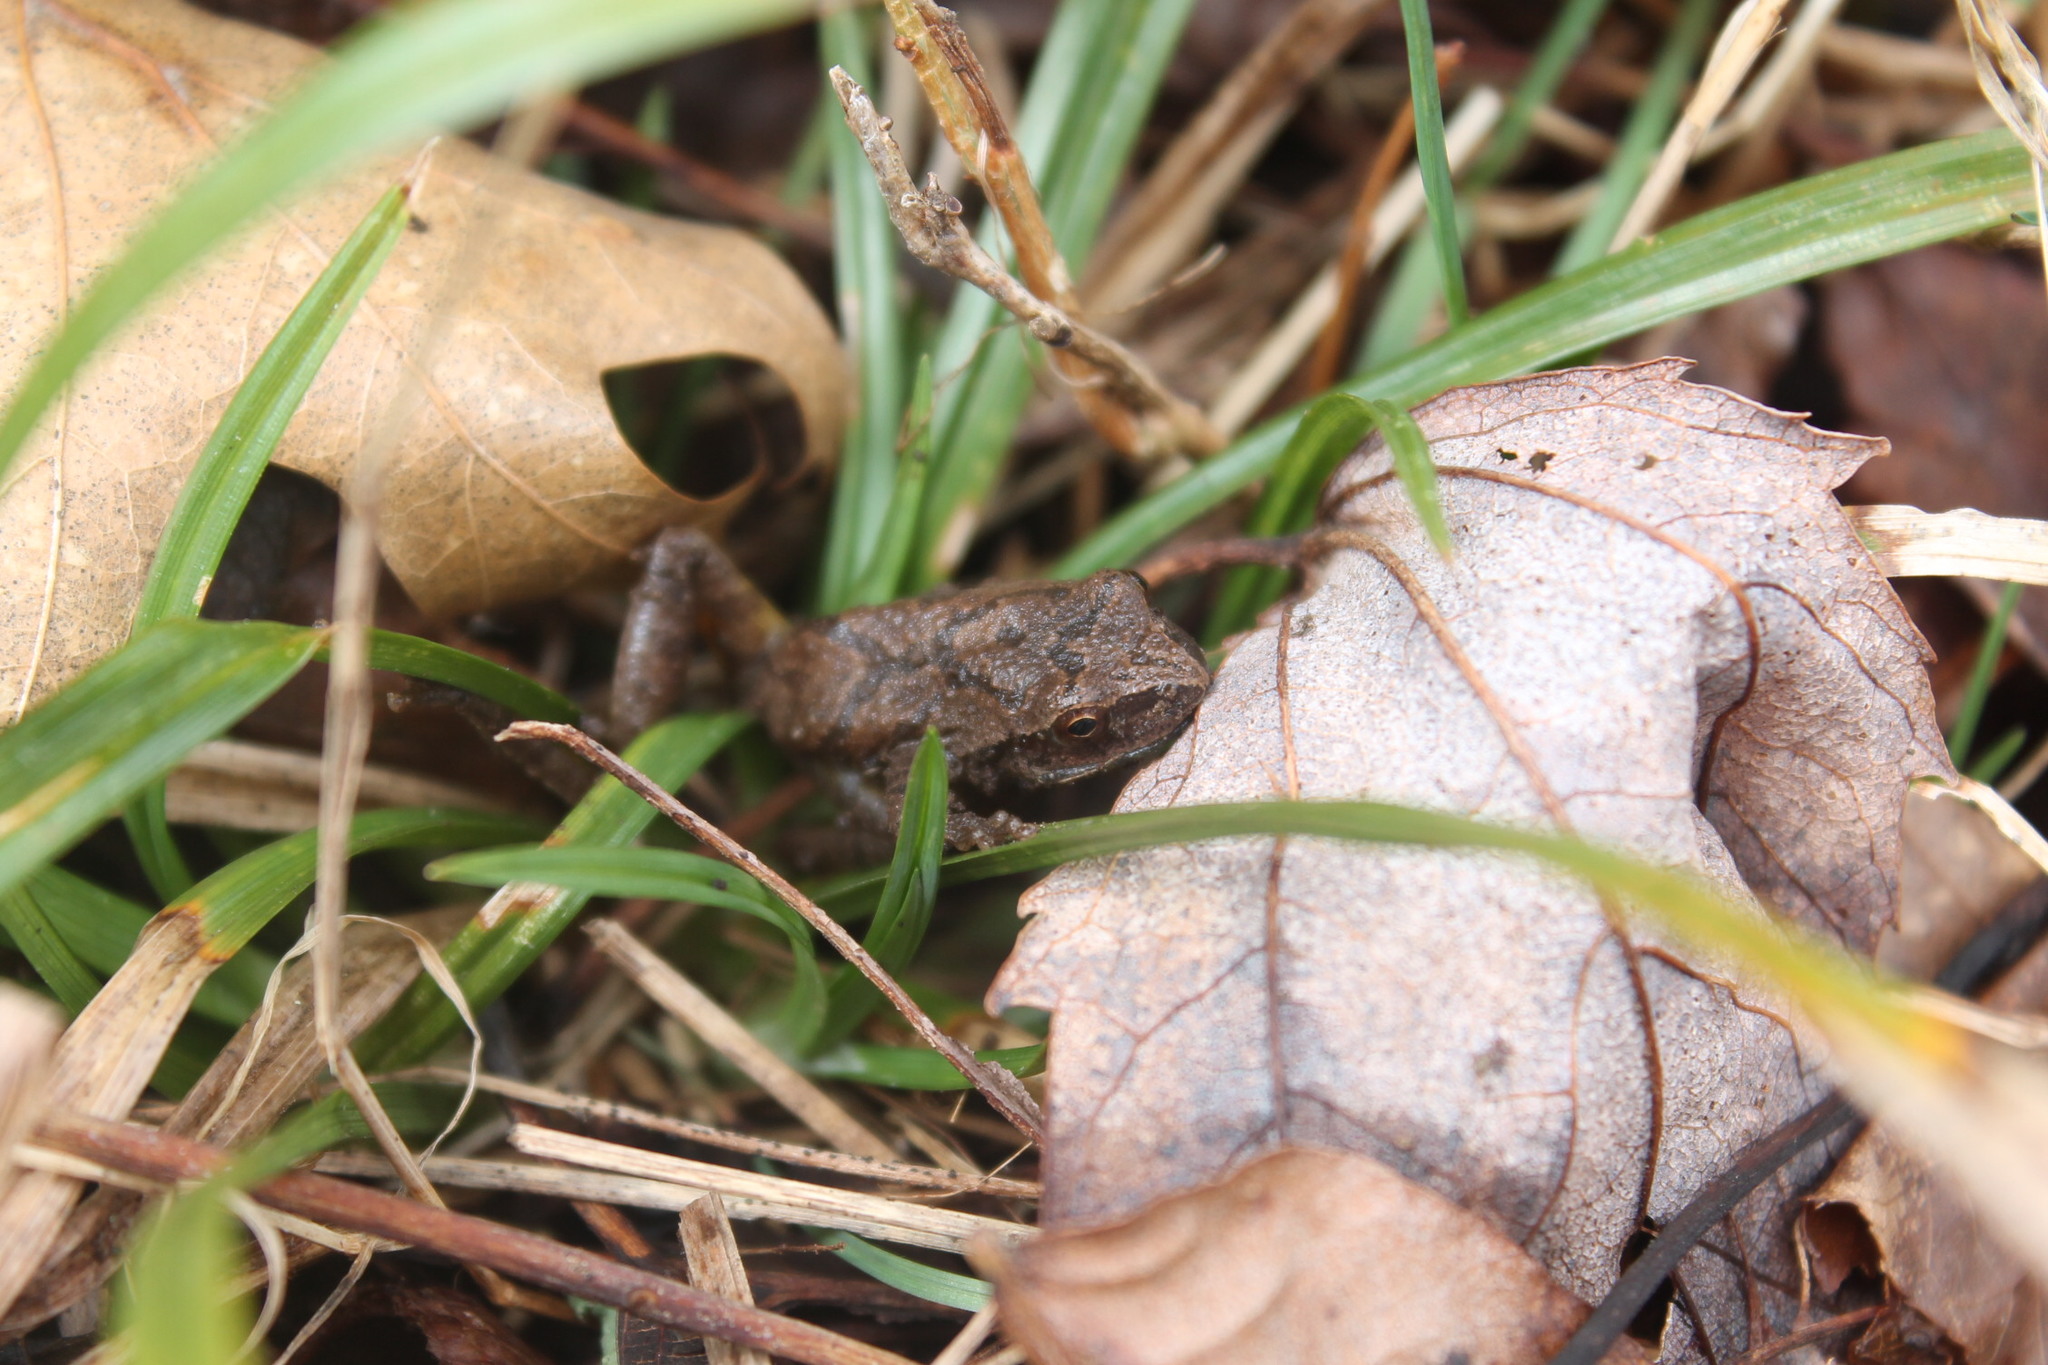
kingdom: Animalia
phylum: Chordata
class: Amphibia
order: Anura
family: Hylidae
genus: Pseudacris
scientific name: Pseudacris crucifer
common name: Spring peeper
